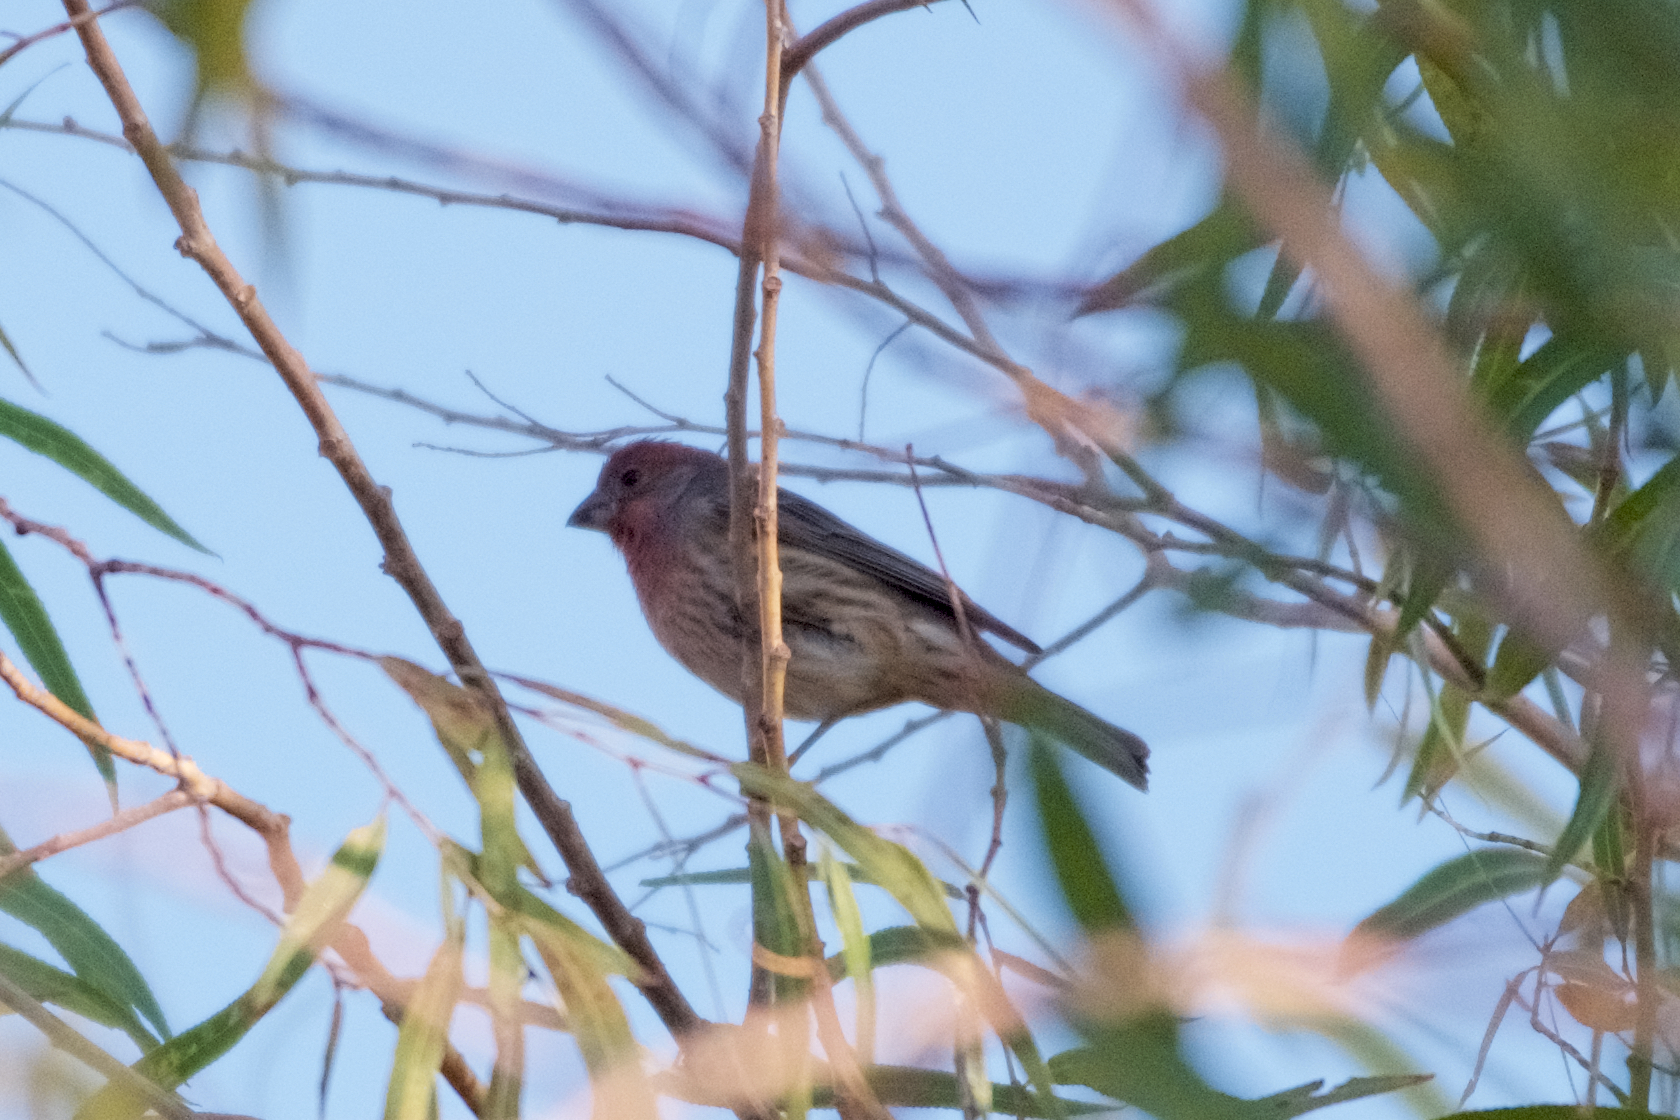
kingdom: Animalia
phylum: Chordata
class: Aves
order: Passeriformes
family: Fringillidae
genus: Haemorhous
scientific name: Haemorhous mexicanus
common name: House finch
